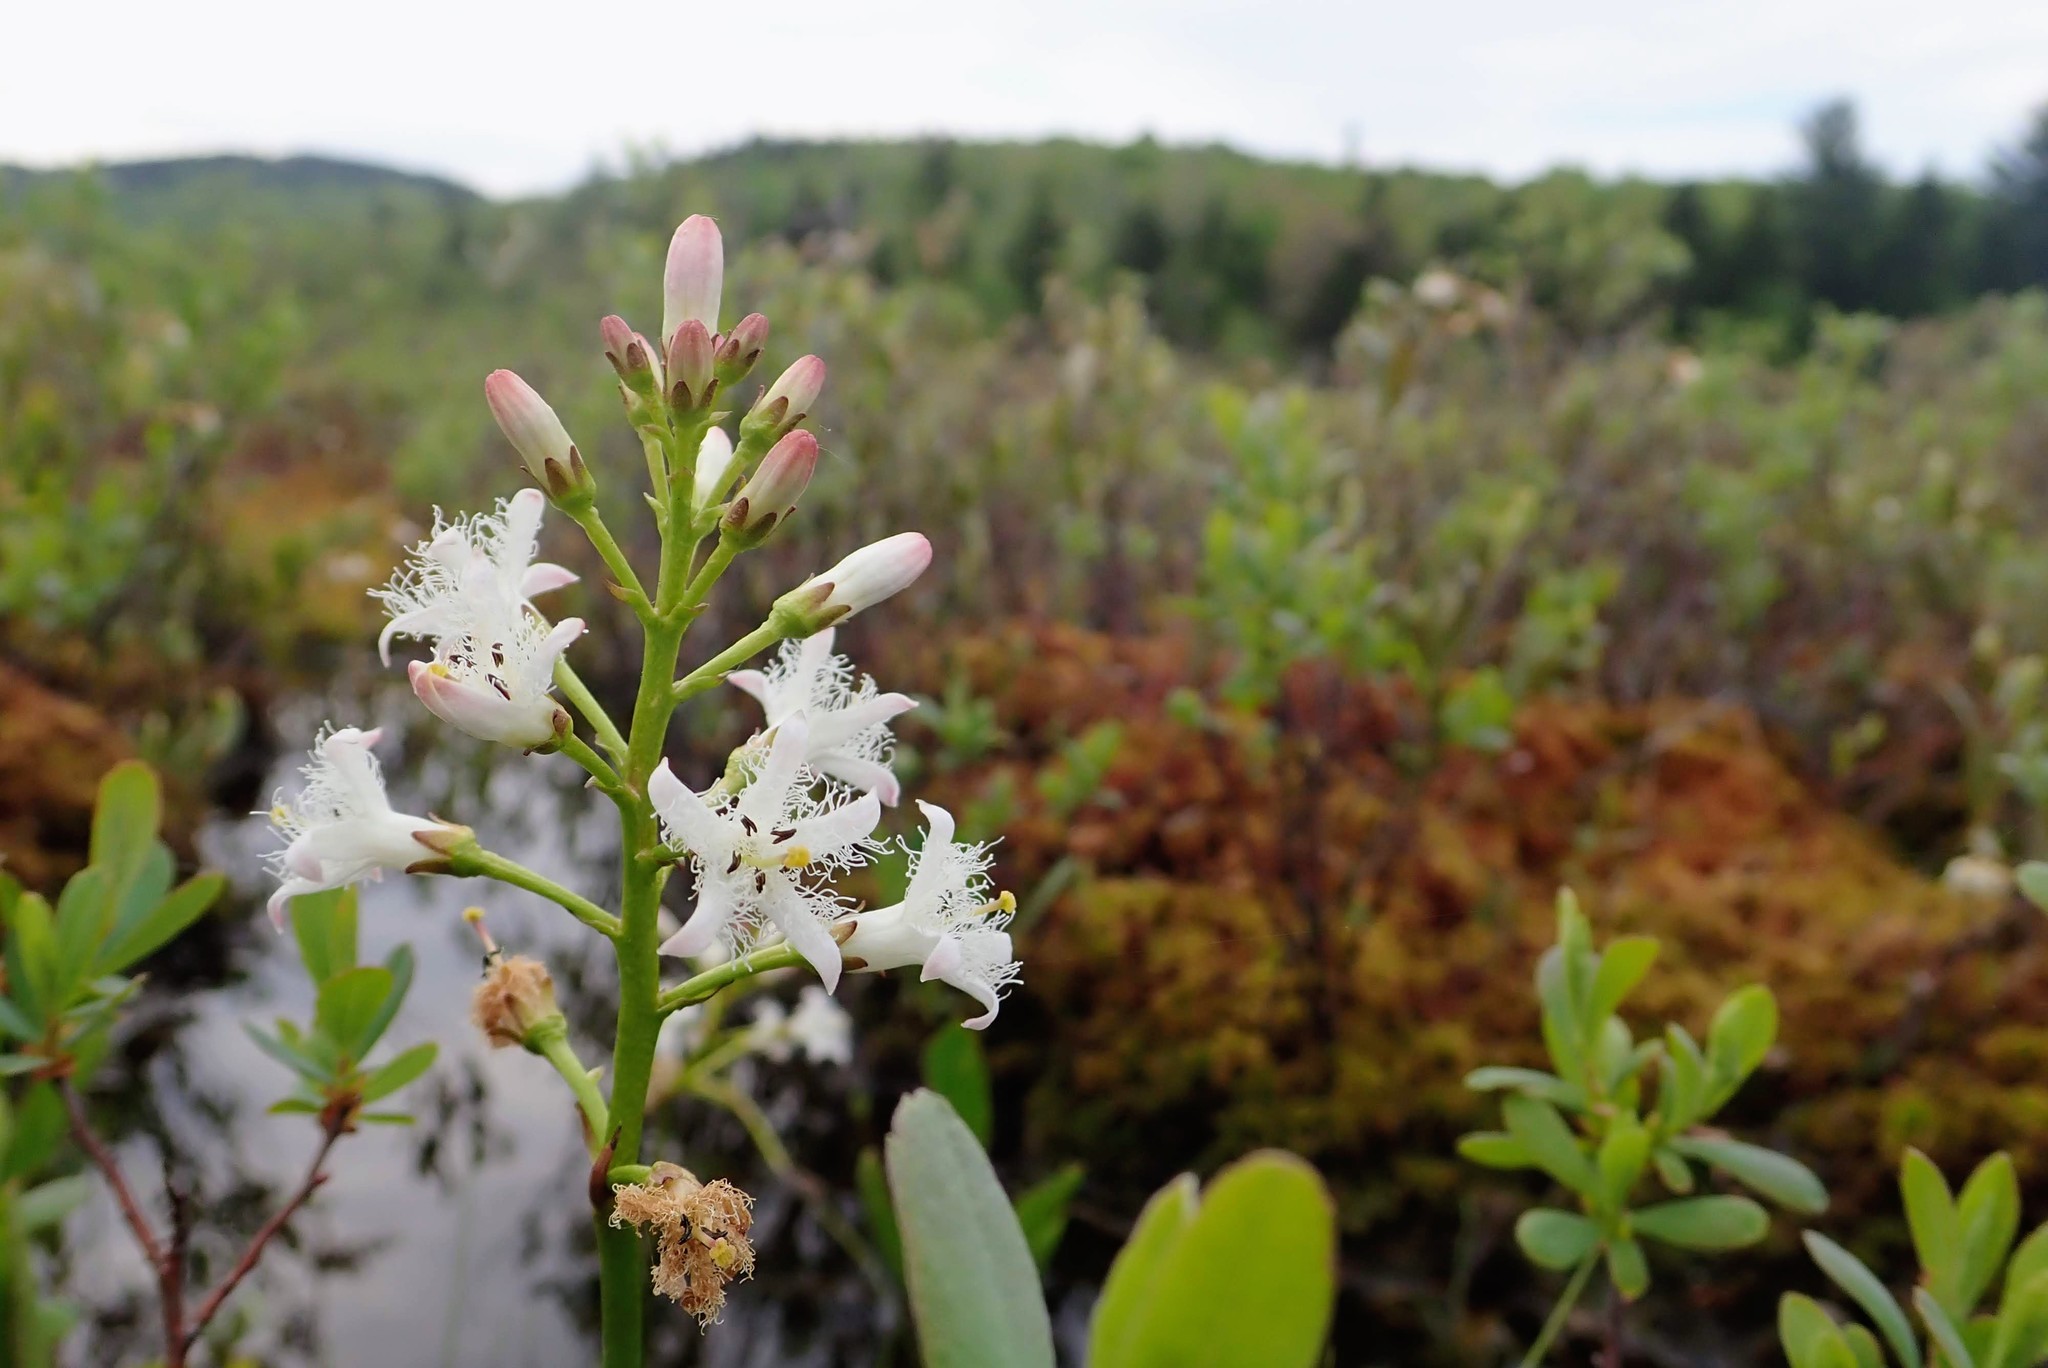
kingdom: Plantae
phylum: Tracheophyta
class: Magnoliopsida
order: Asterales
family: Menyanthaceae
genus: Menyanthes
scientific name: Menyanthes trifoliata
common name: Bogbean
